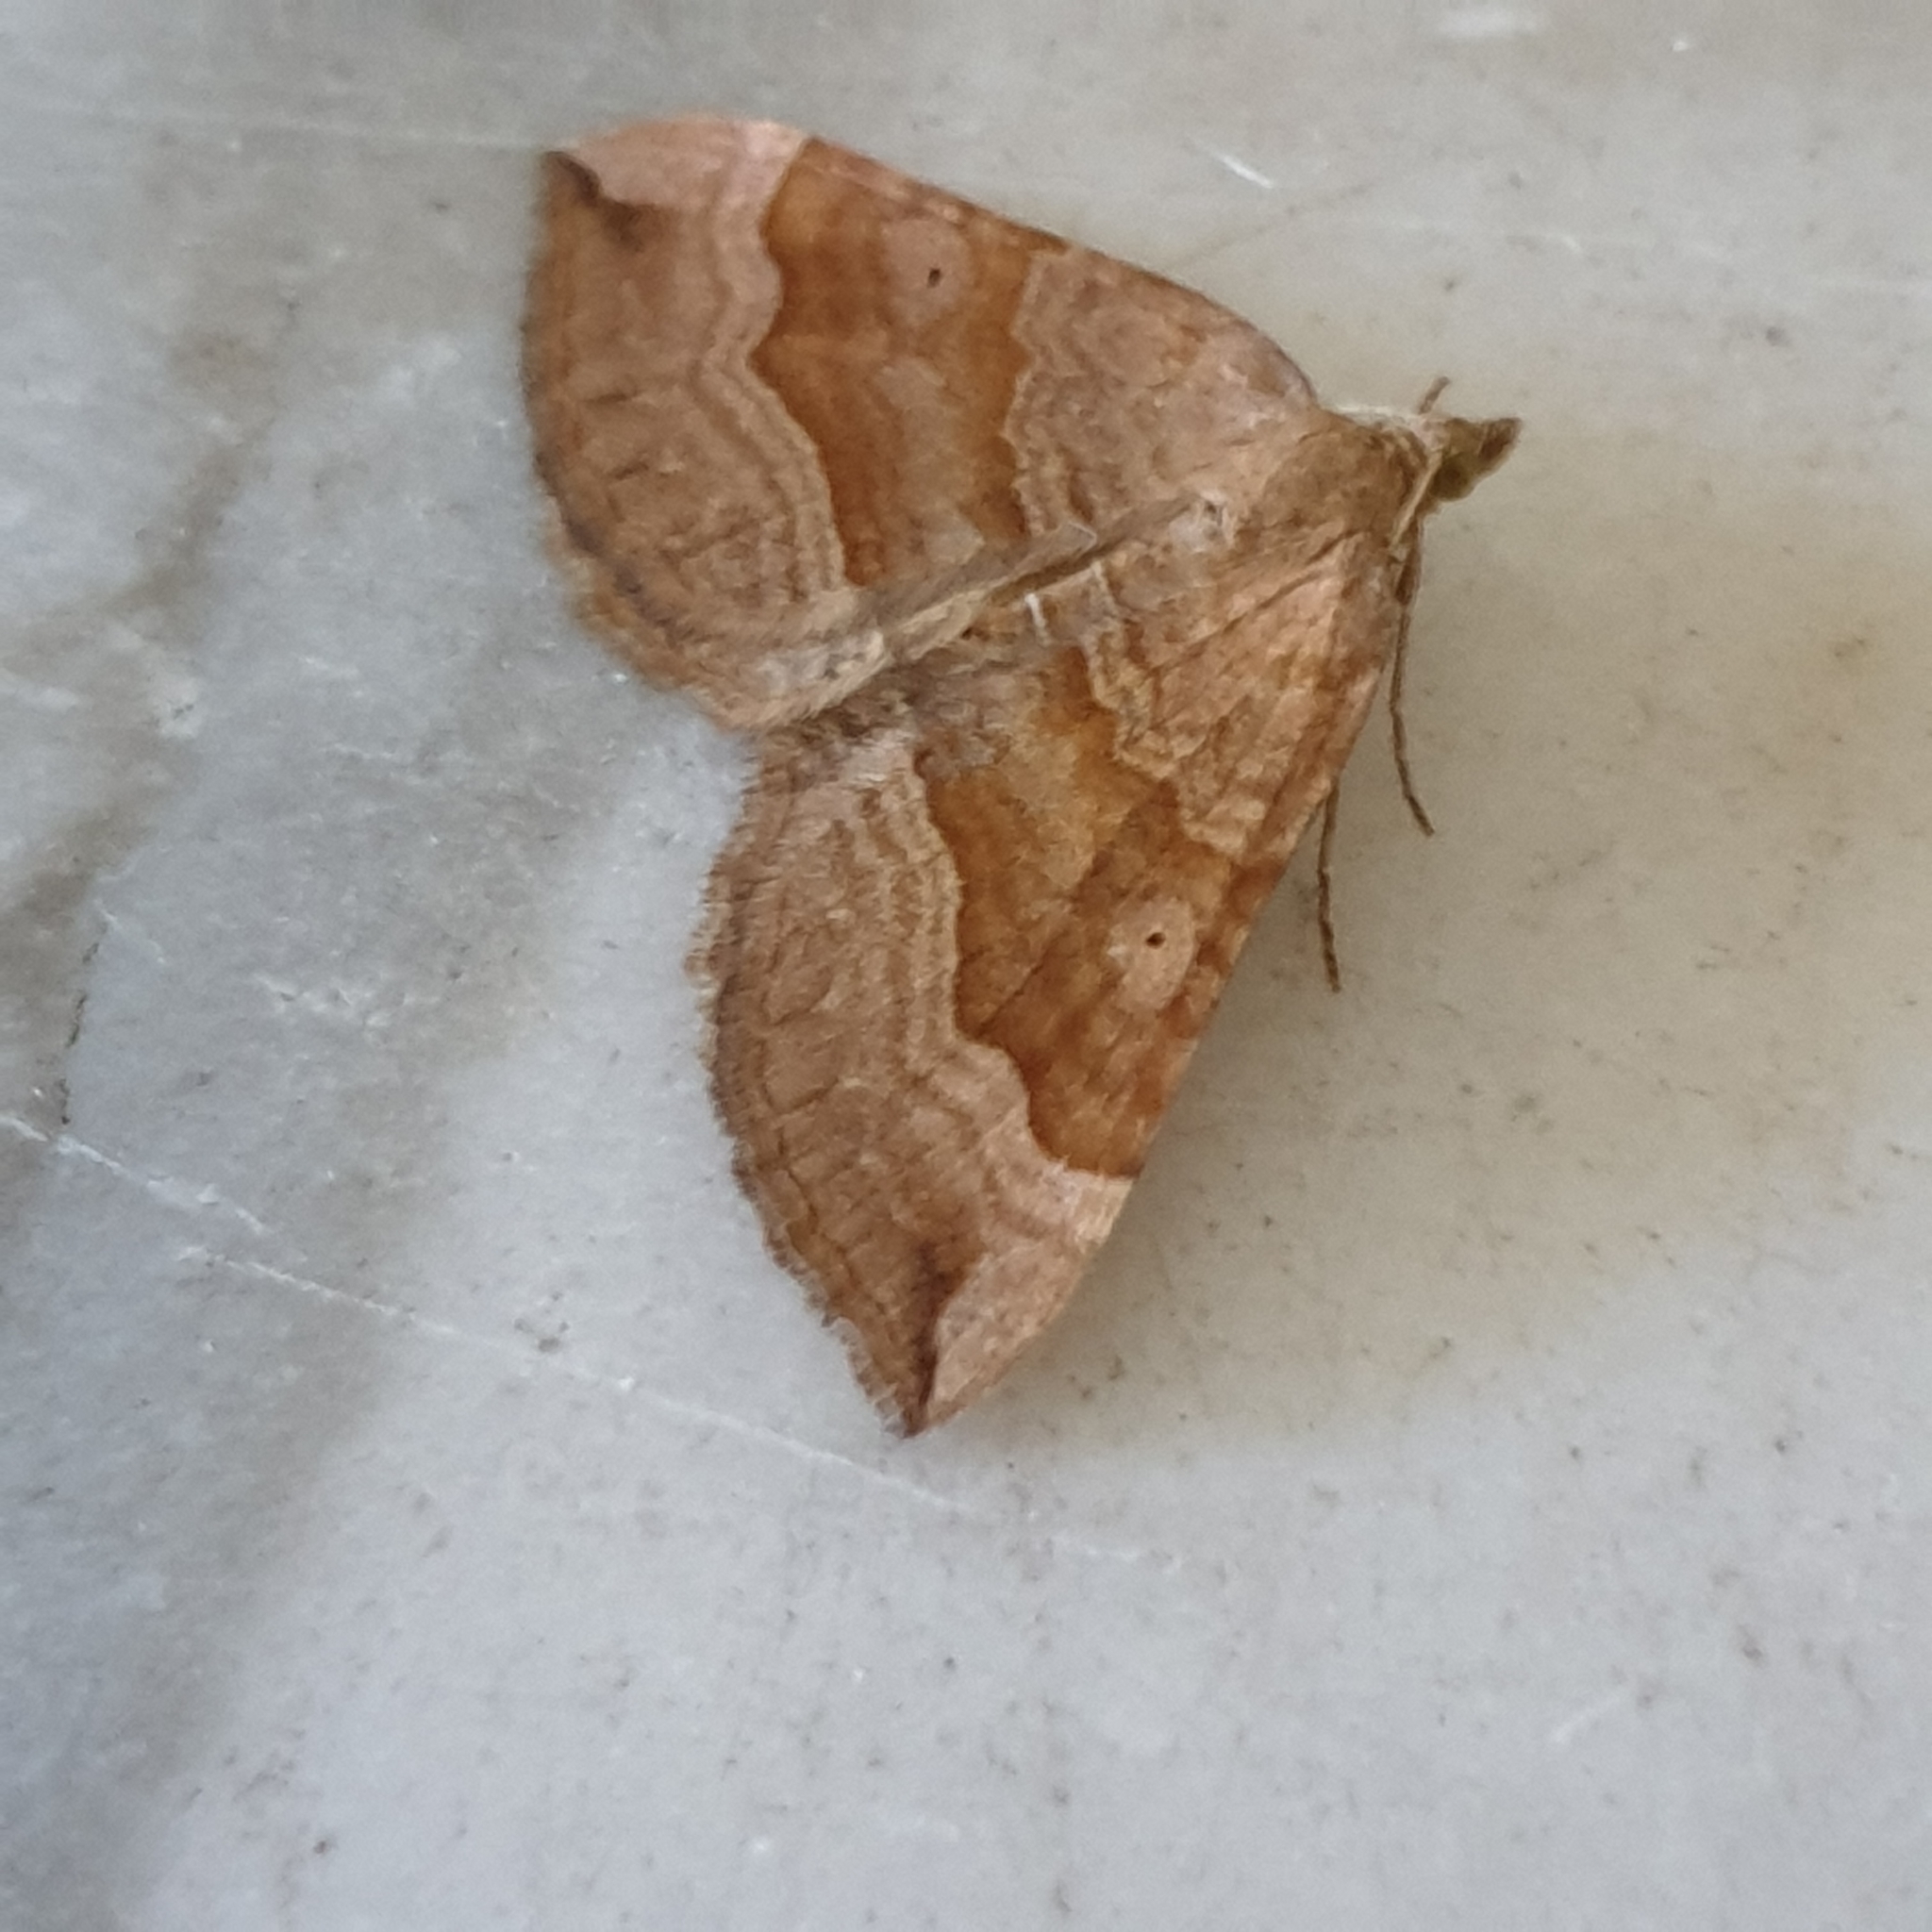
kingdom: Animalia
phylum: Arthropoda
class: Insecta
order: Lepidoptera
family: Geometridae
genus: Scotopteryx
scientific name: Scotopteryx chenopodiata
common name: Shaded broad-bar
